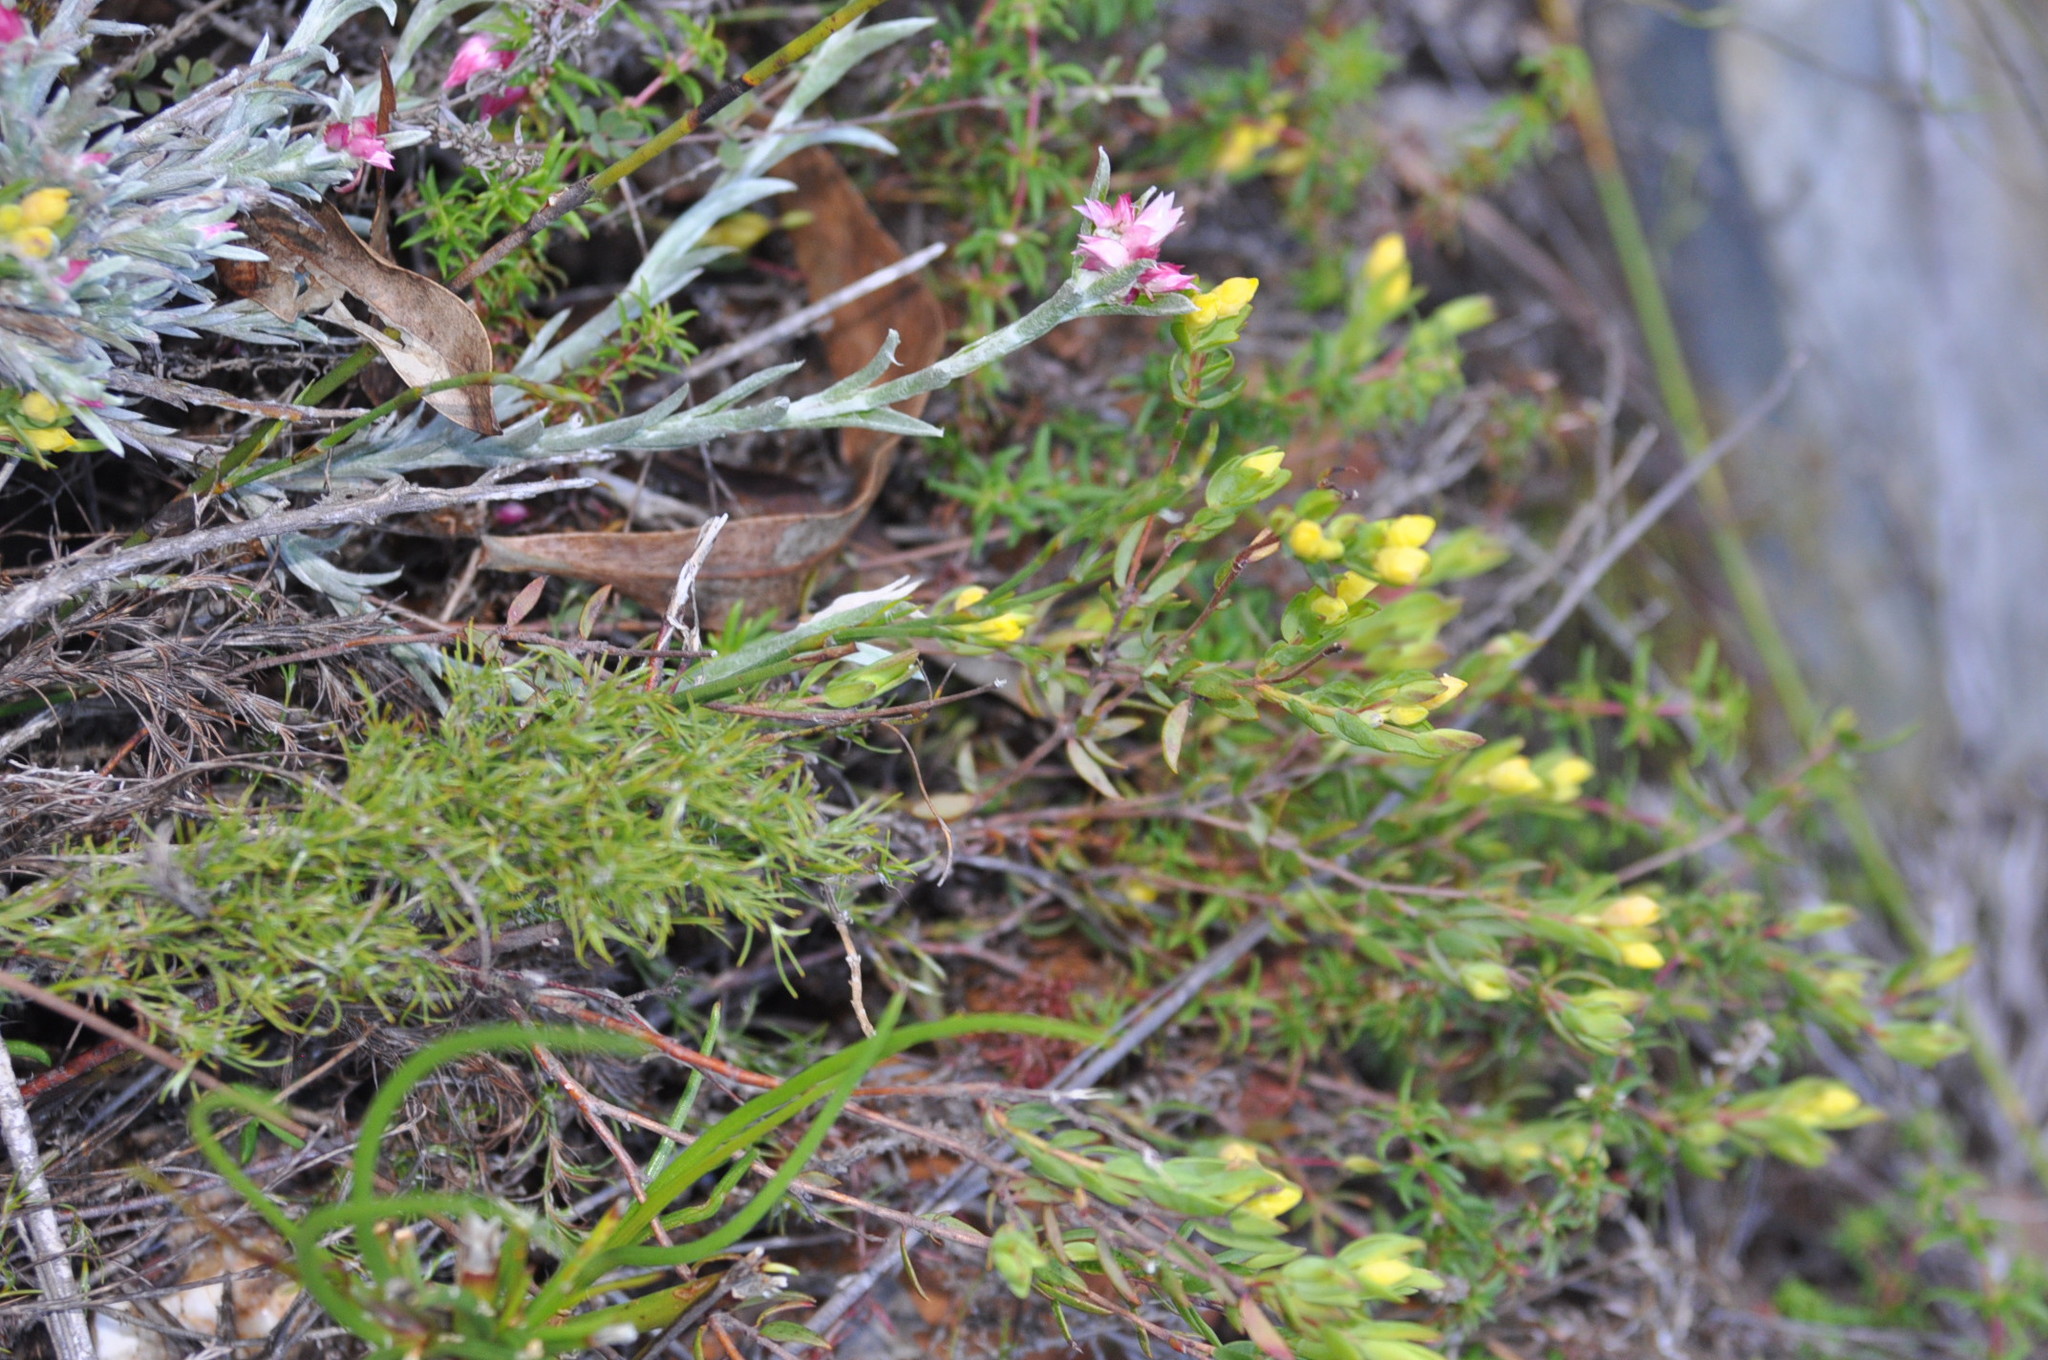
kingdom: Plantae
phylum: Tracheophyta
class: Magnoliopsida
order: Malvales
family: Thymelaeaceae
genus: Gnidia
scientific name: Gnidia juniperifolia
